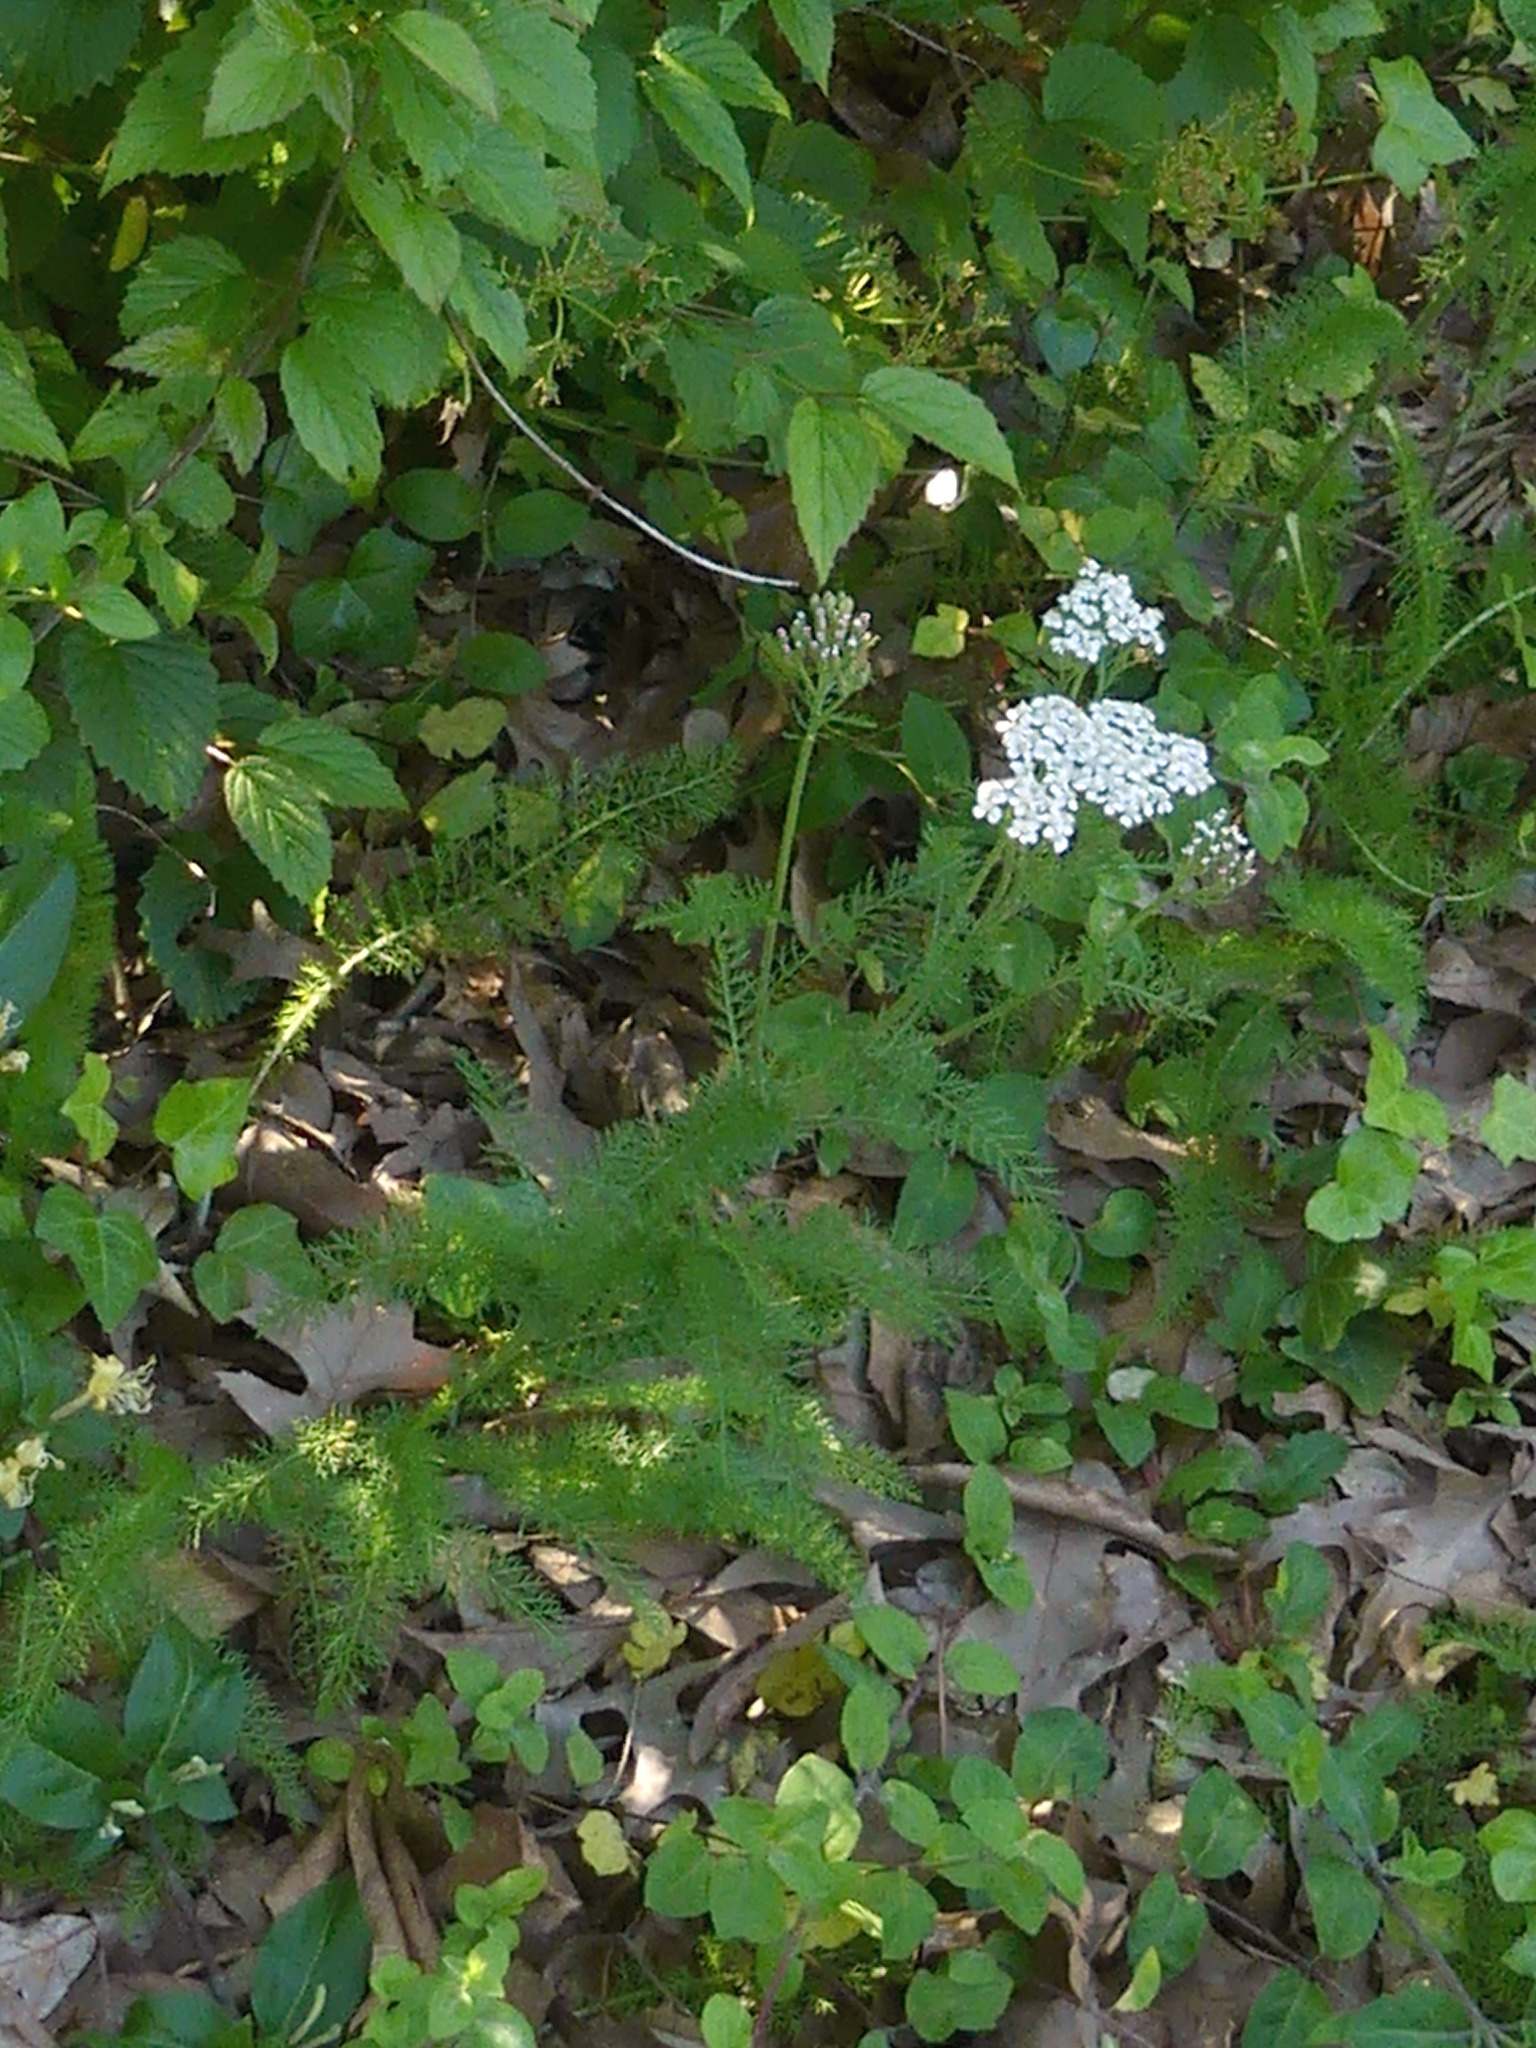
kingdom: Plantae
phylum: Tracheophyta
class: Magnoliopsida
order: Asterales
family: Asteraceae
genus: Achillea
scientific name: Achillea millefolium
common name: Yarrow
